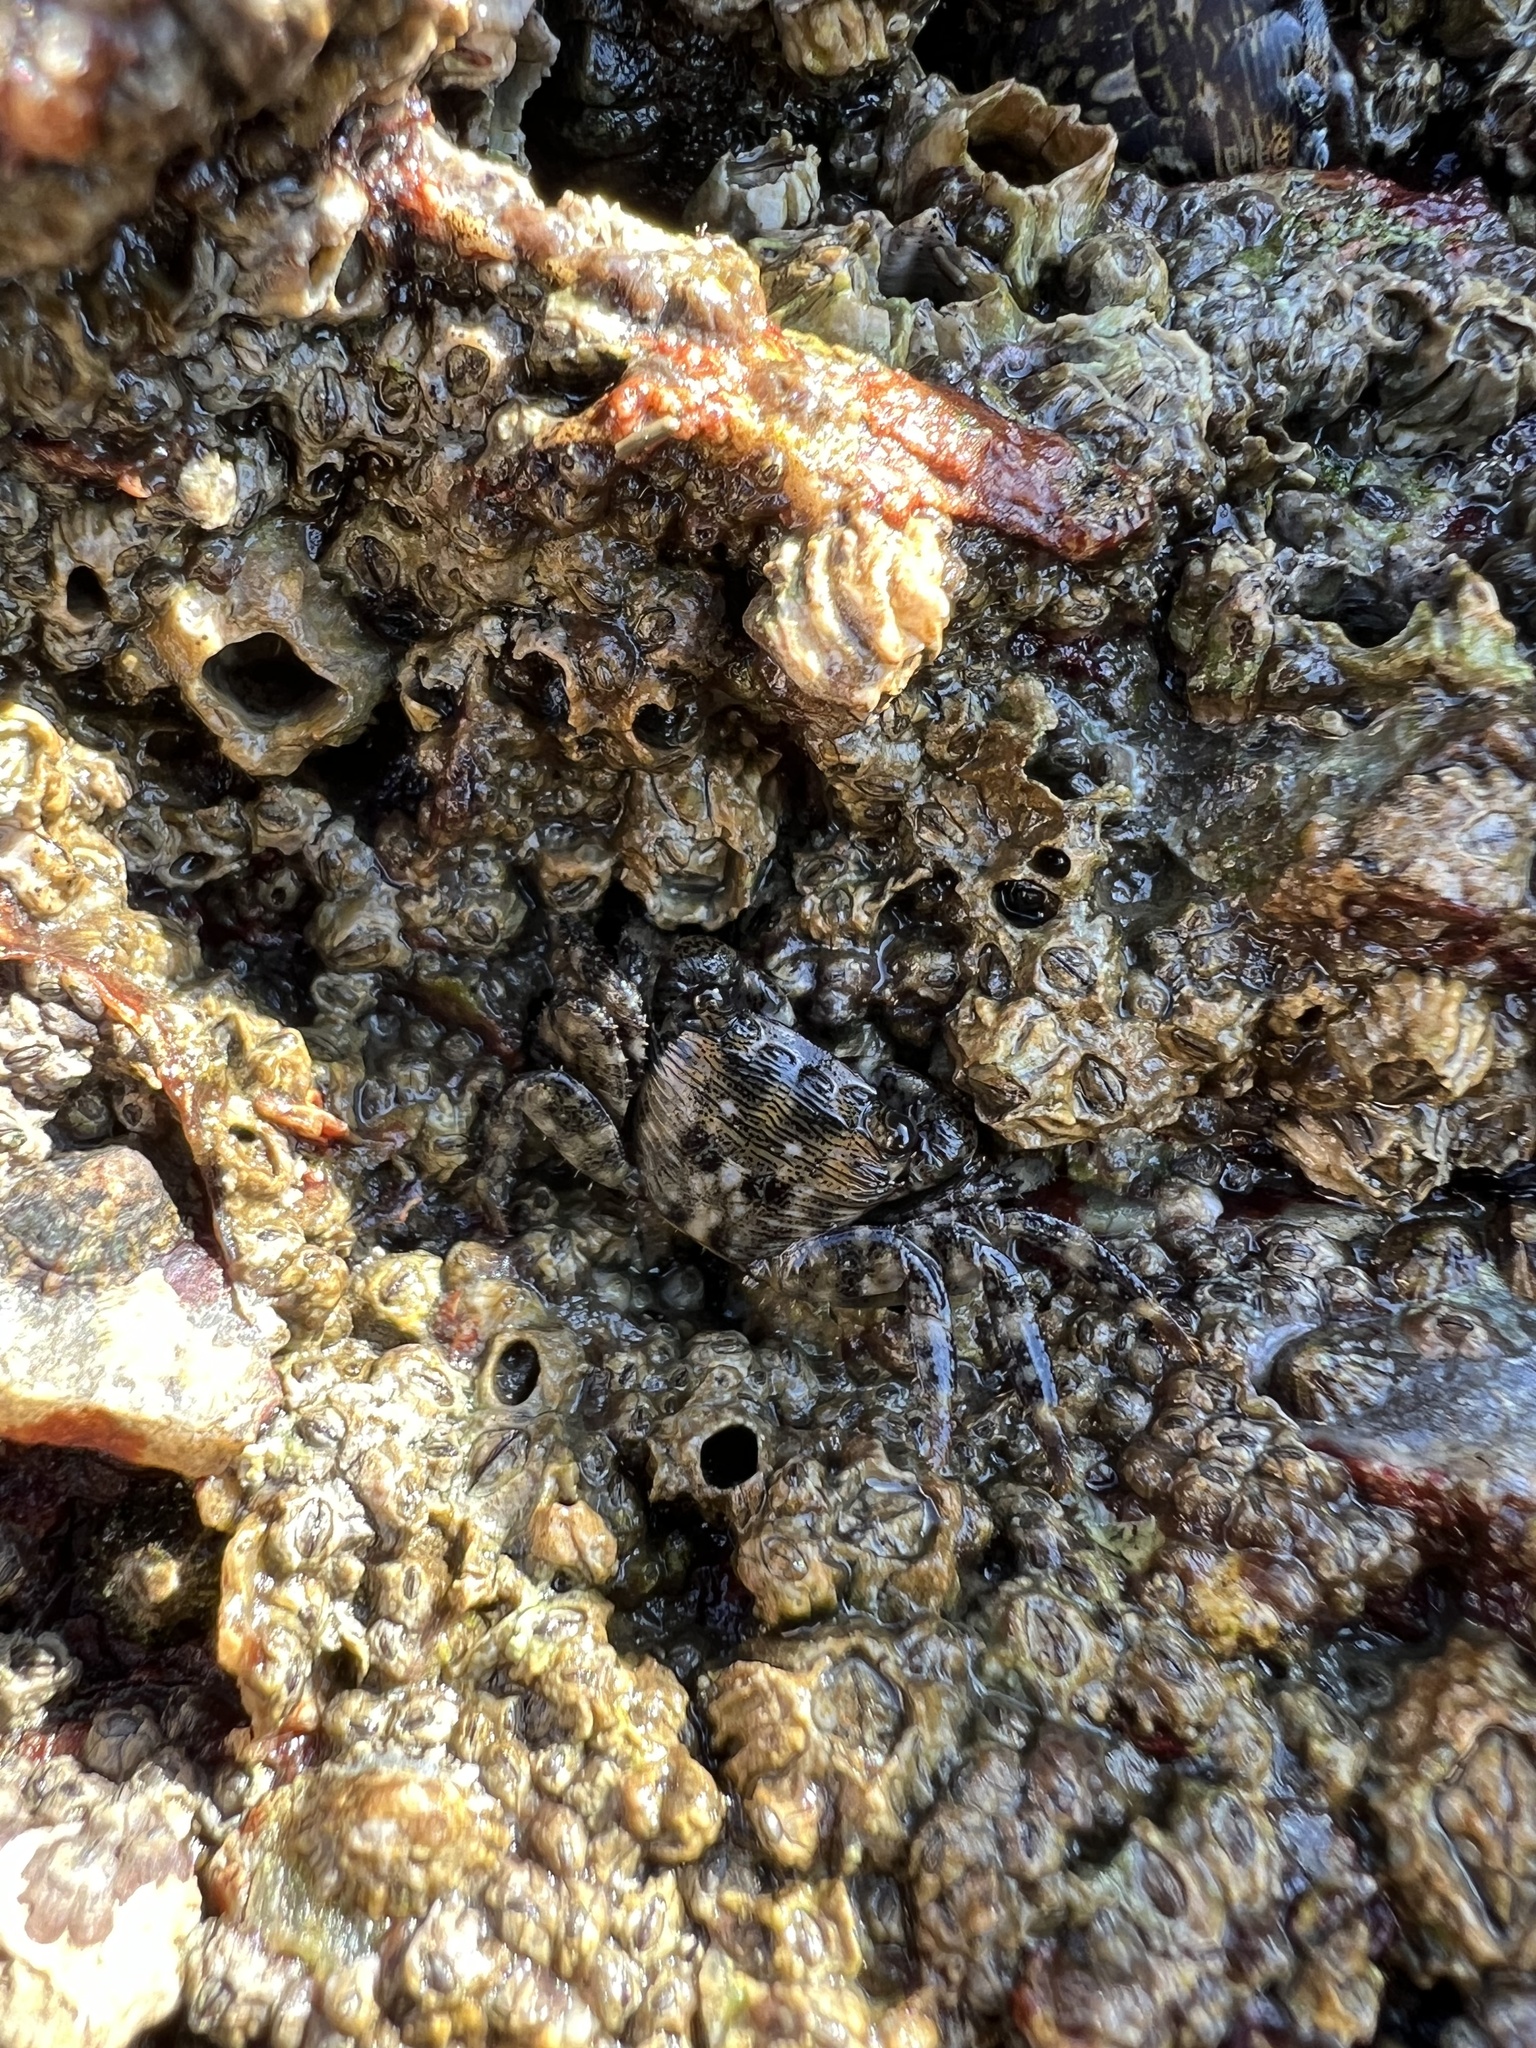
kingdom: Animalia
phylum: Arthropoda
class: Malacostraca
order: Decapoda
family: Grapsidae
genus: Pachygrapsus
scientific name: Pachygrapsus crassipes
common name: Striped shore crab
